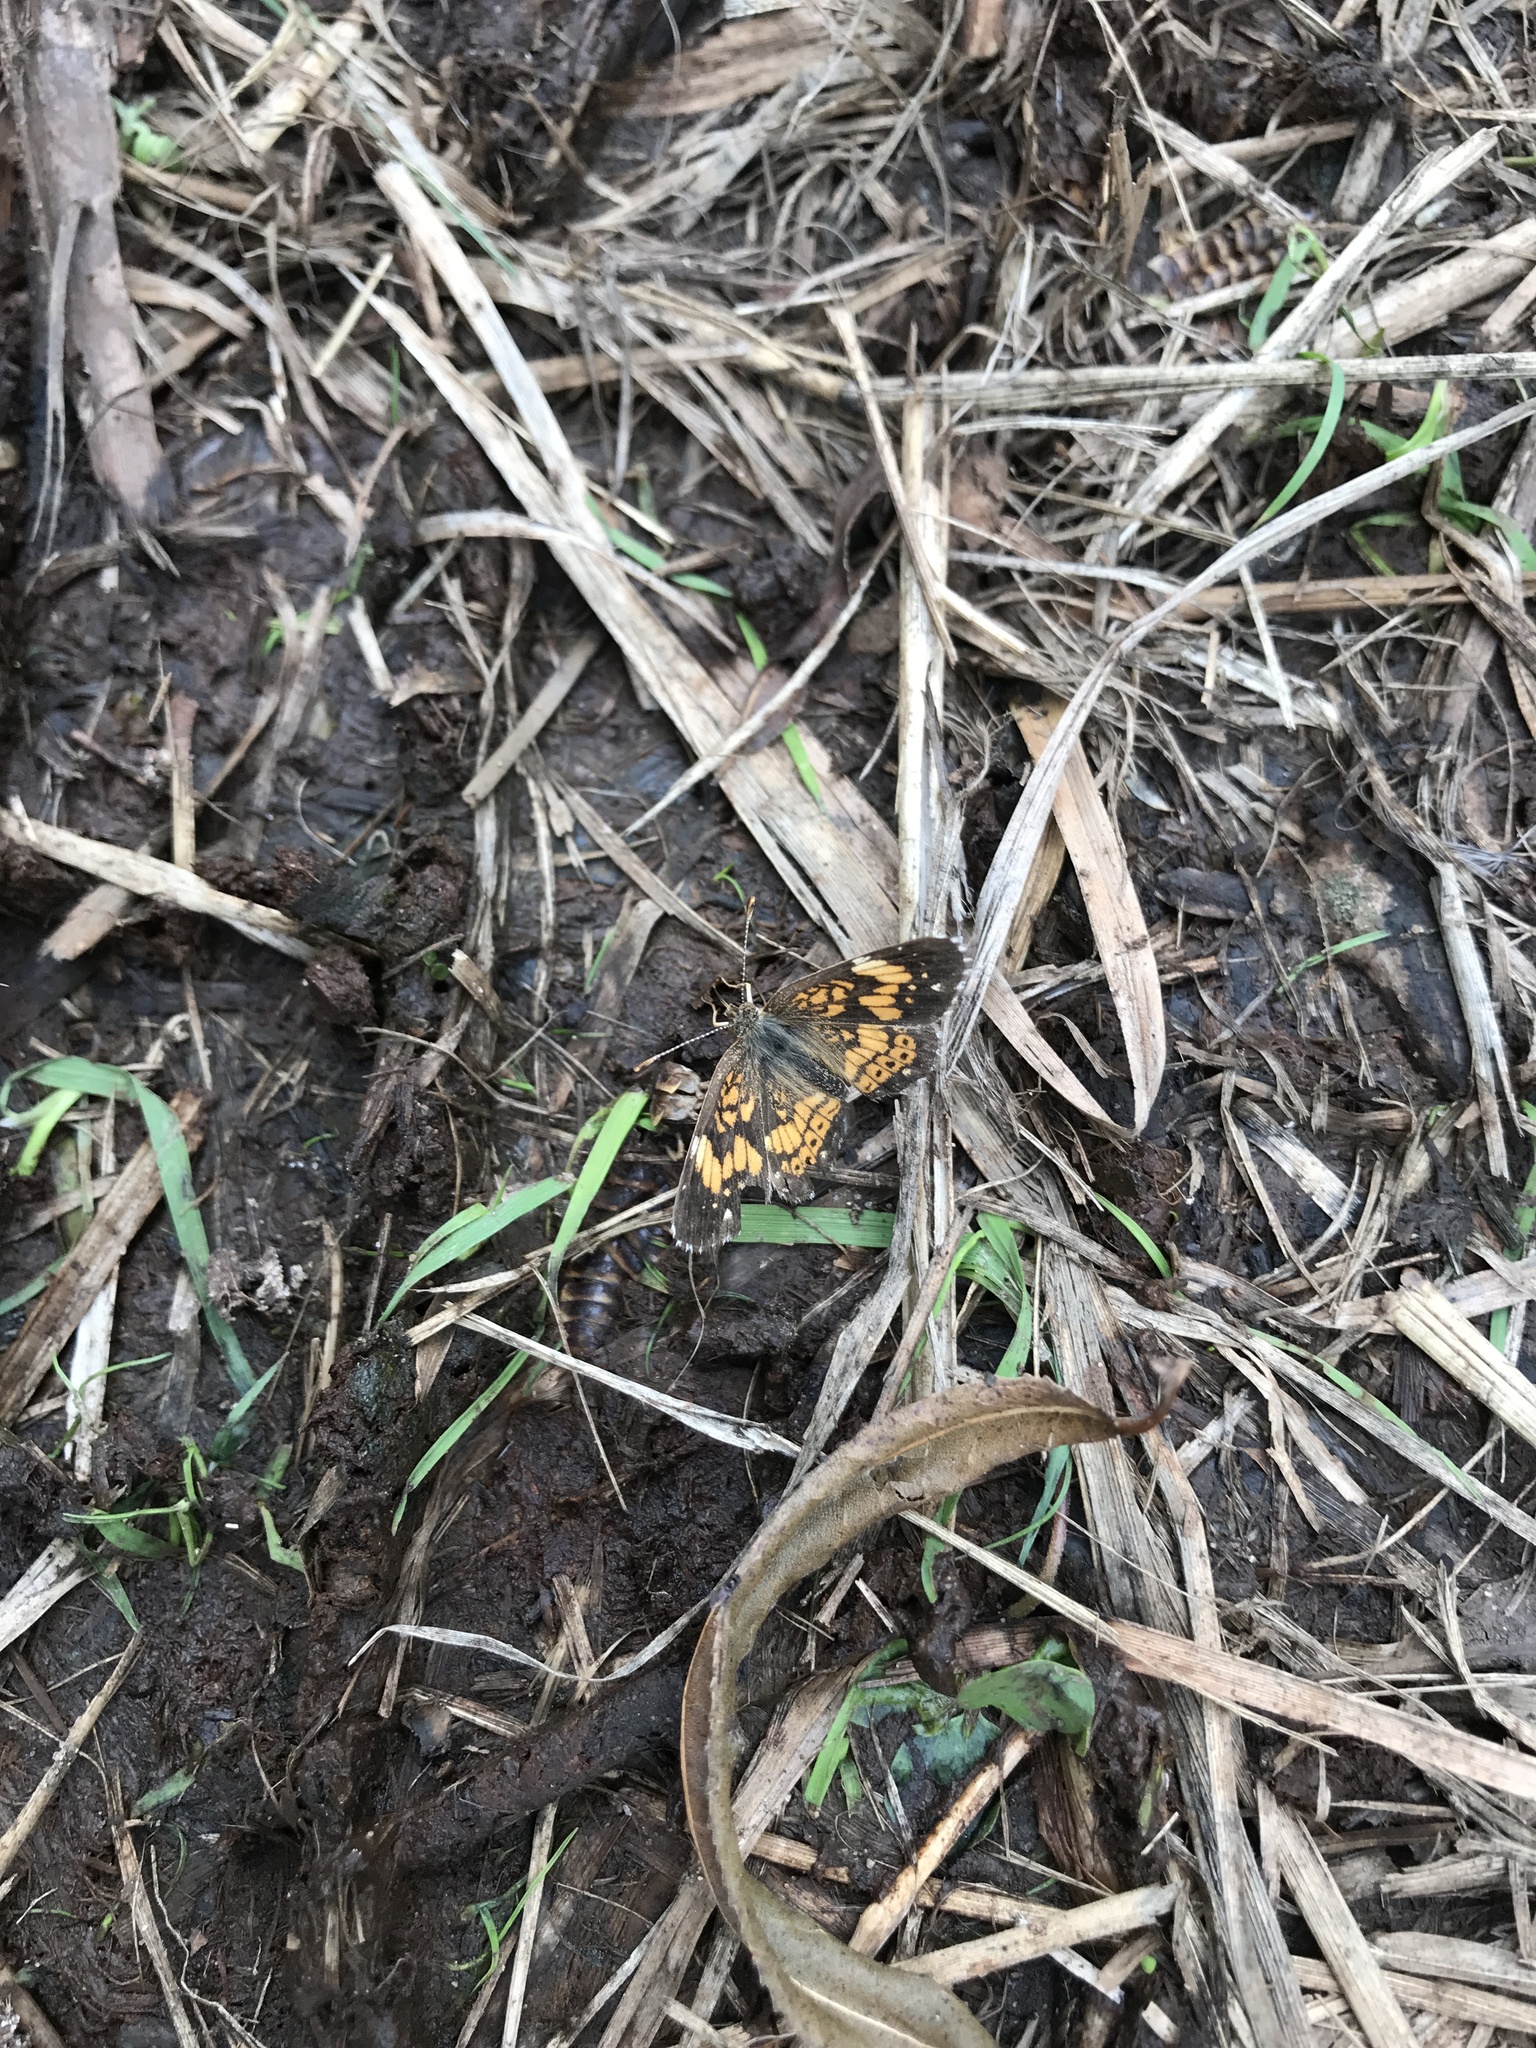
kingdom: Animalia
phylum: Arthropoda
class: Insecta
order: Lepidoptera
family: Nymphalidae
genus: Chlosyne
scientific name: Chlosyne nycteis
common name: Silvery checkerspot
